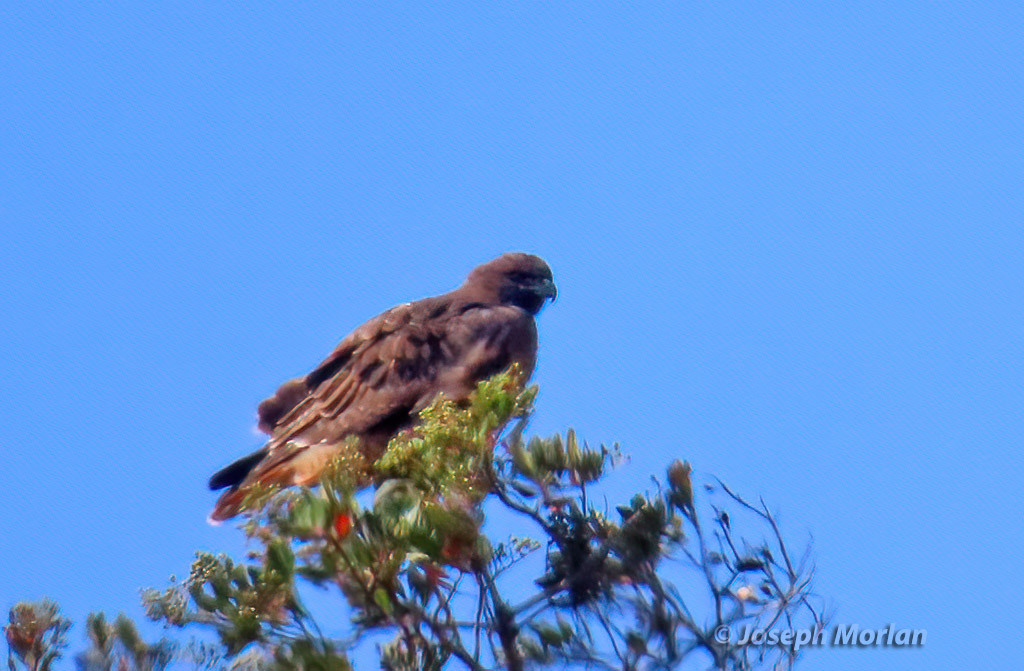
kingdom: Animalia
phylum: Chordata
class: Aves
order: Accipitriformes
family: Accipitridae
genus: Buteo
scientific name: Buteo jamaicensis
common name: Red-tailed hawk
